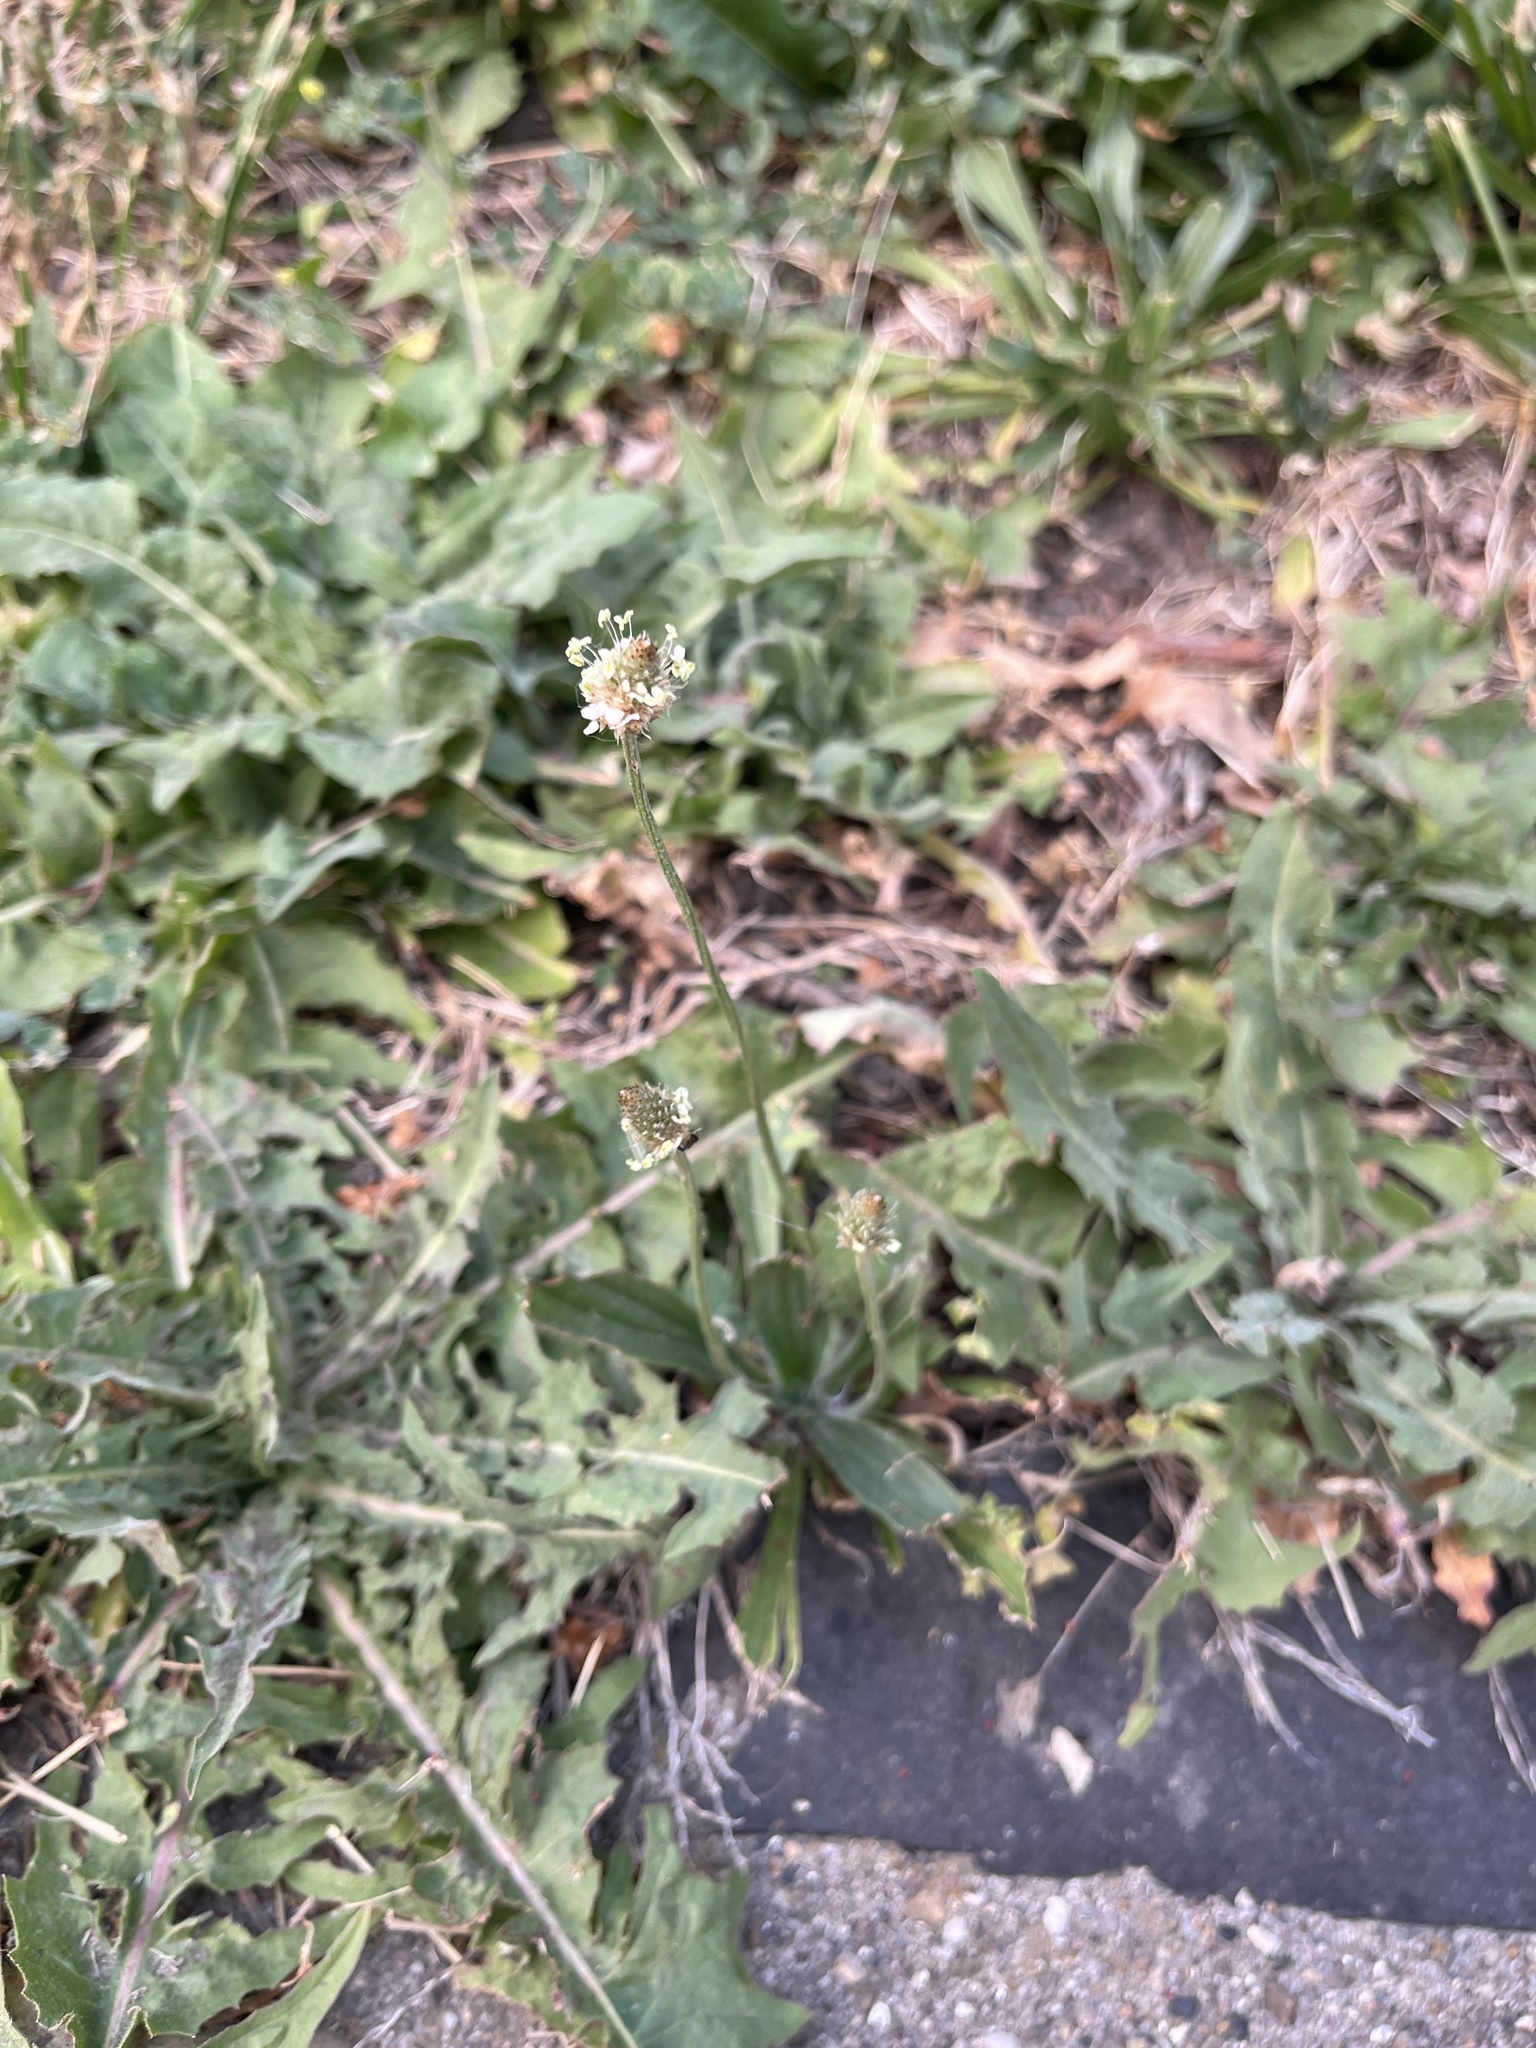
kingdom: Plantae
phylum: Tracheophyta
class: Magnoliopsida
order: Lamiales
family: Plantaginaceae
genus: Plantago
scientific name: Plantago lanceolata
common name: Ribwort plantain
